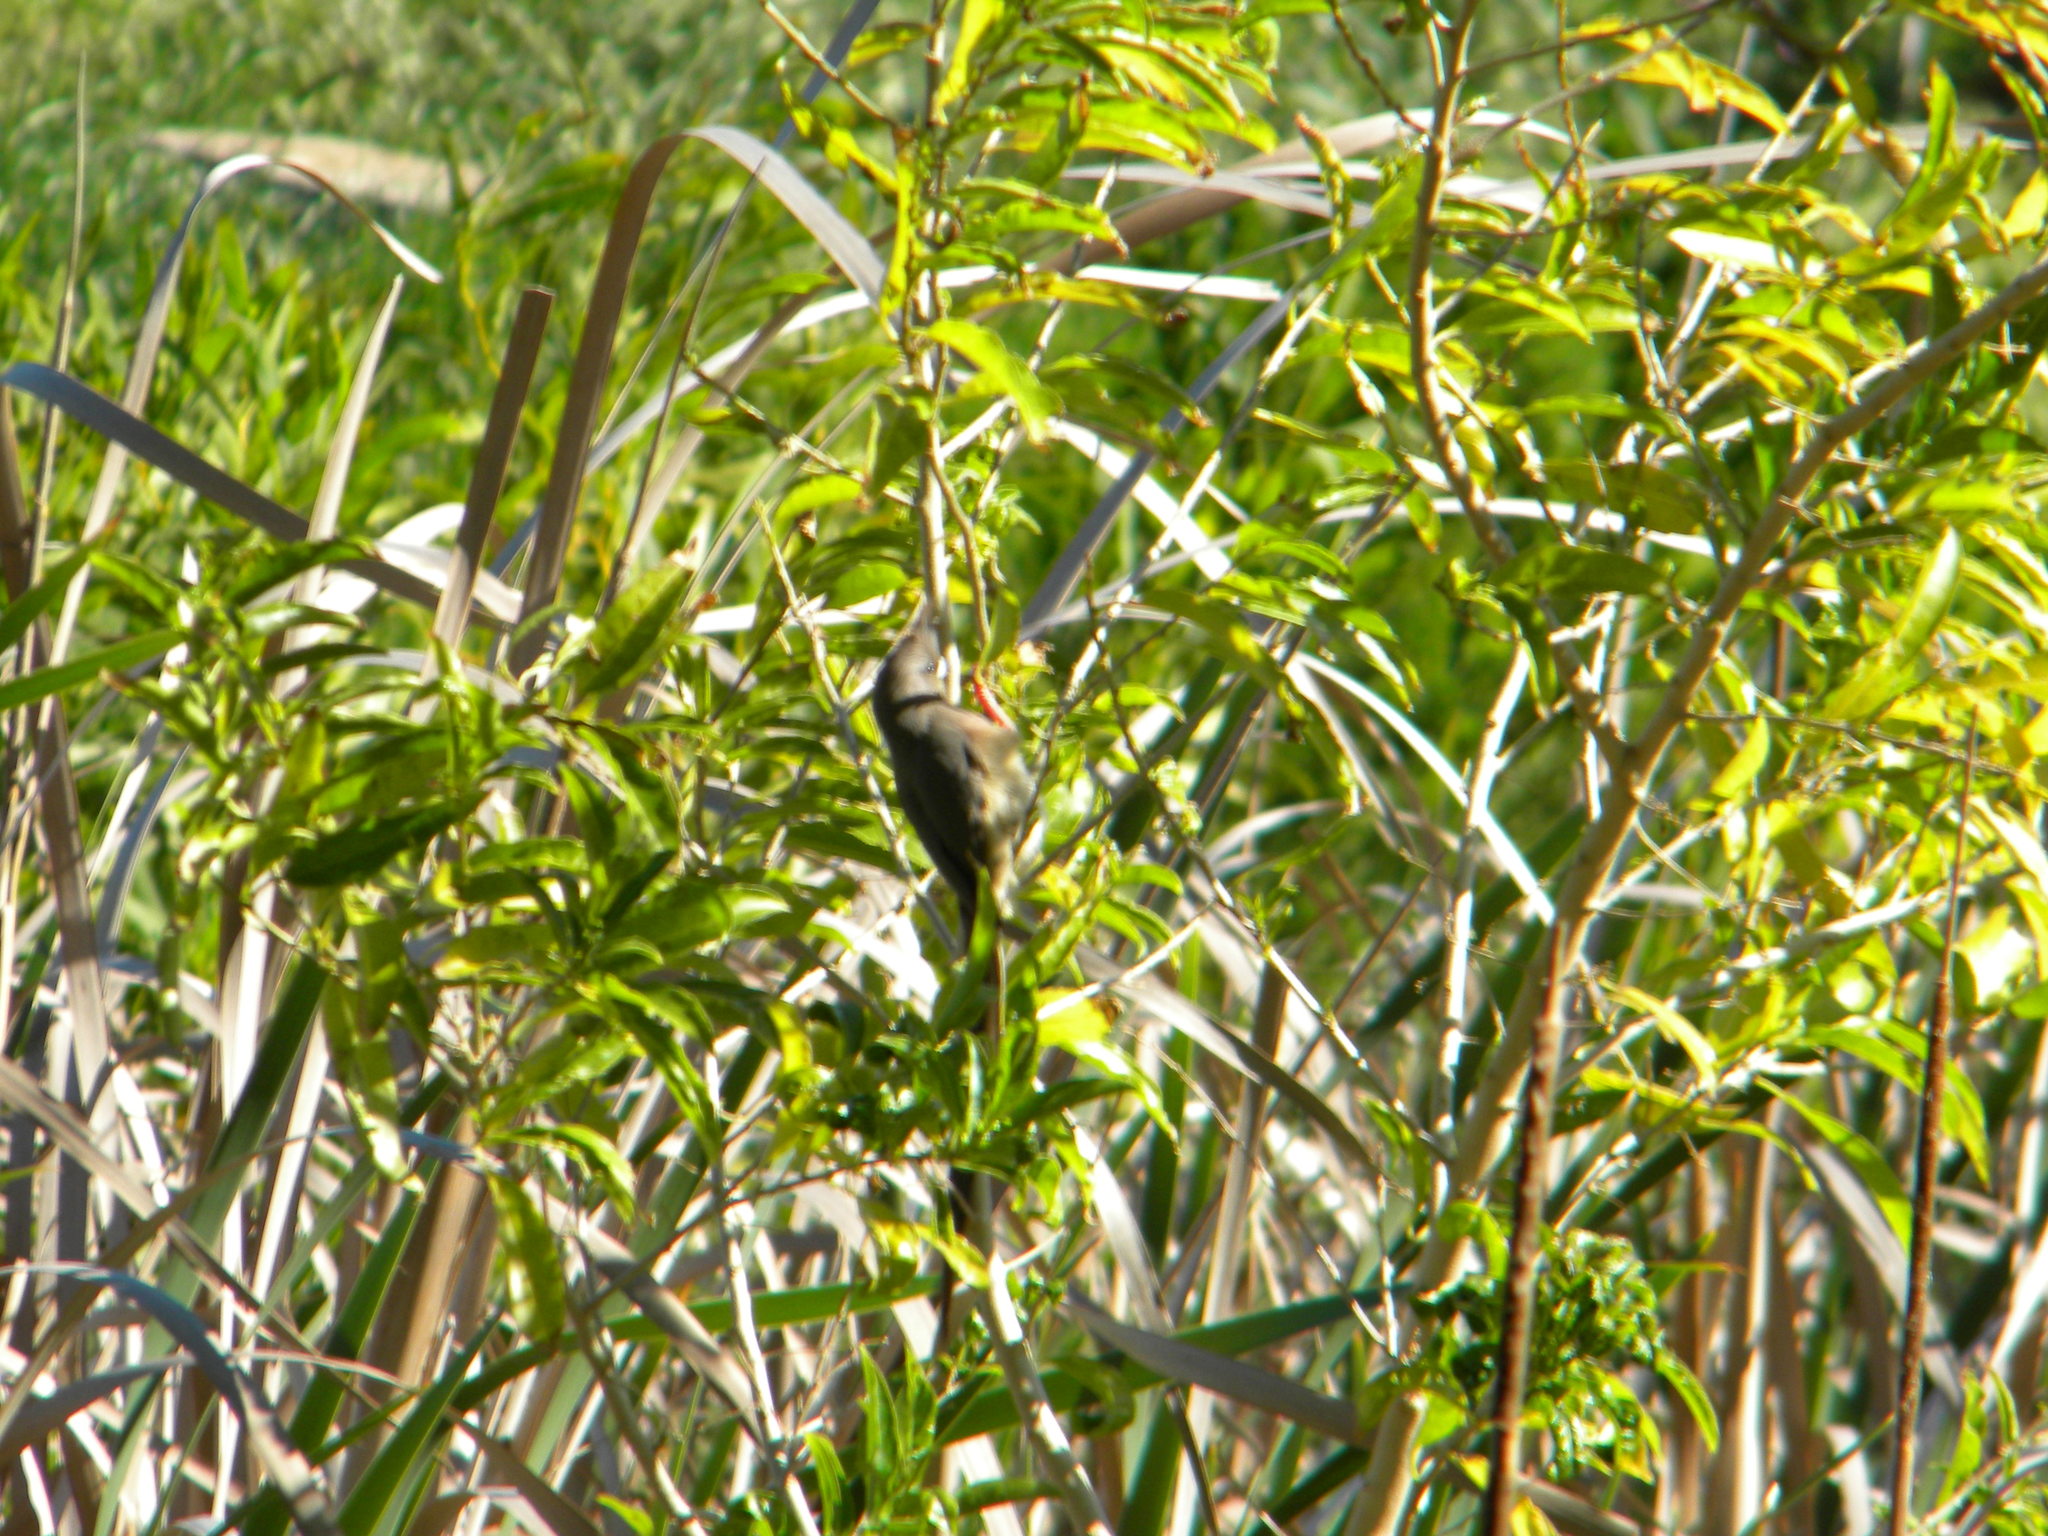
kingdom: Animalia
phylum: Chordata
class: Aves
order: Coliiformes
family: Coliidae
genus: Colius
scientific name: Colius colius
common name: White-backed mousebird
